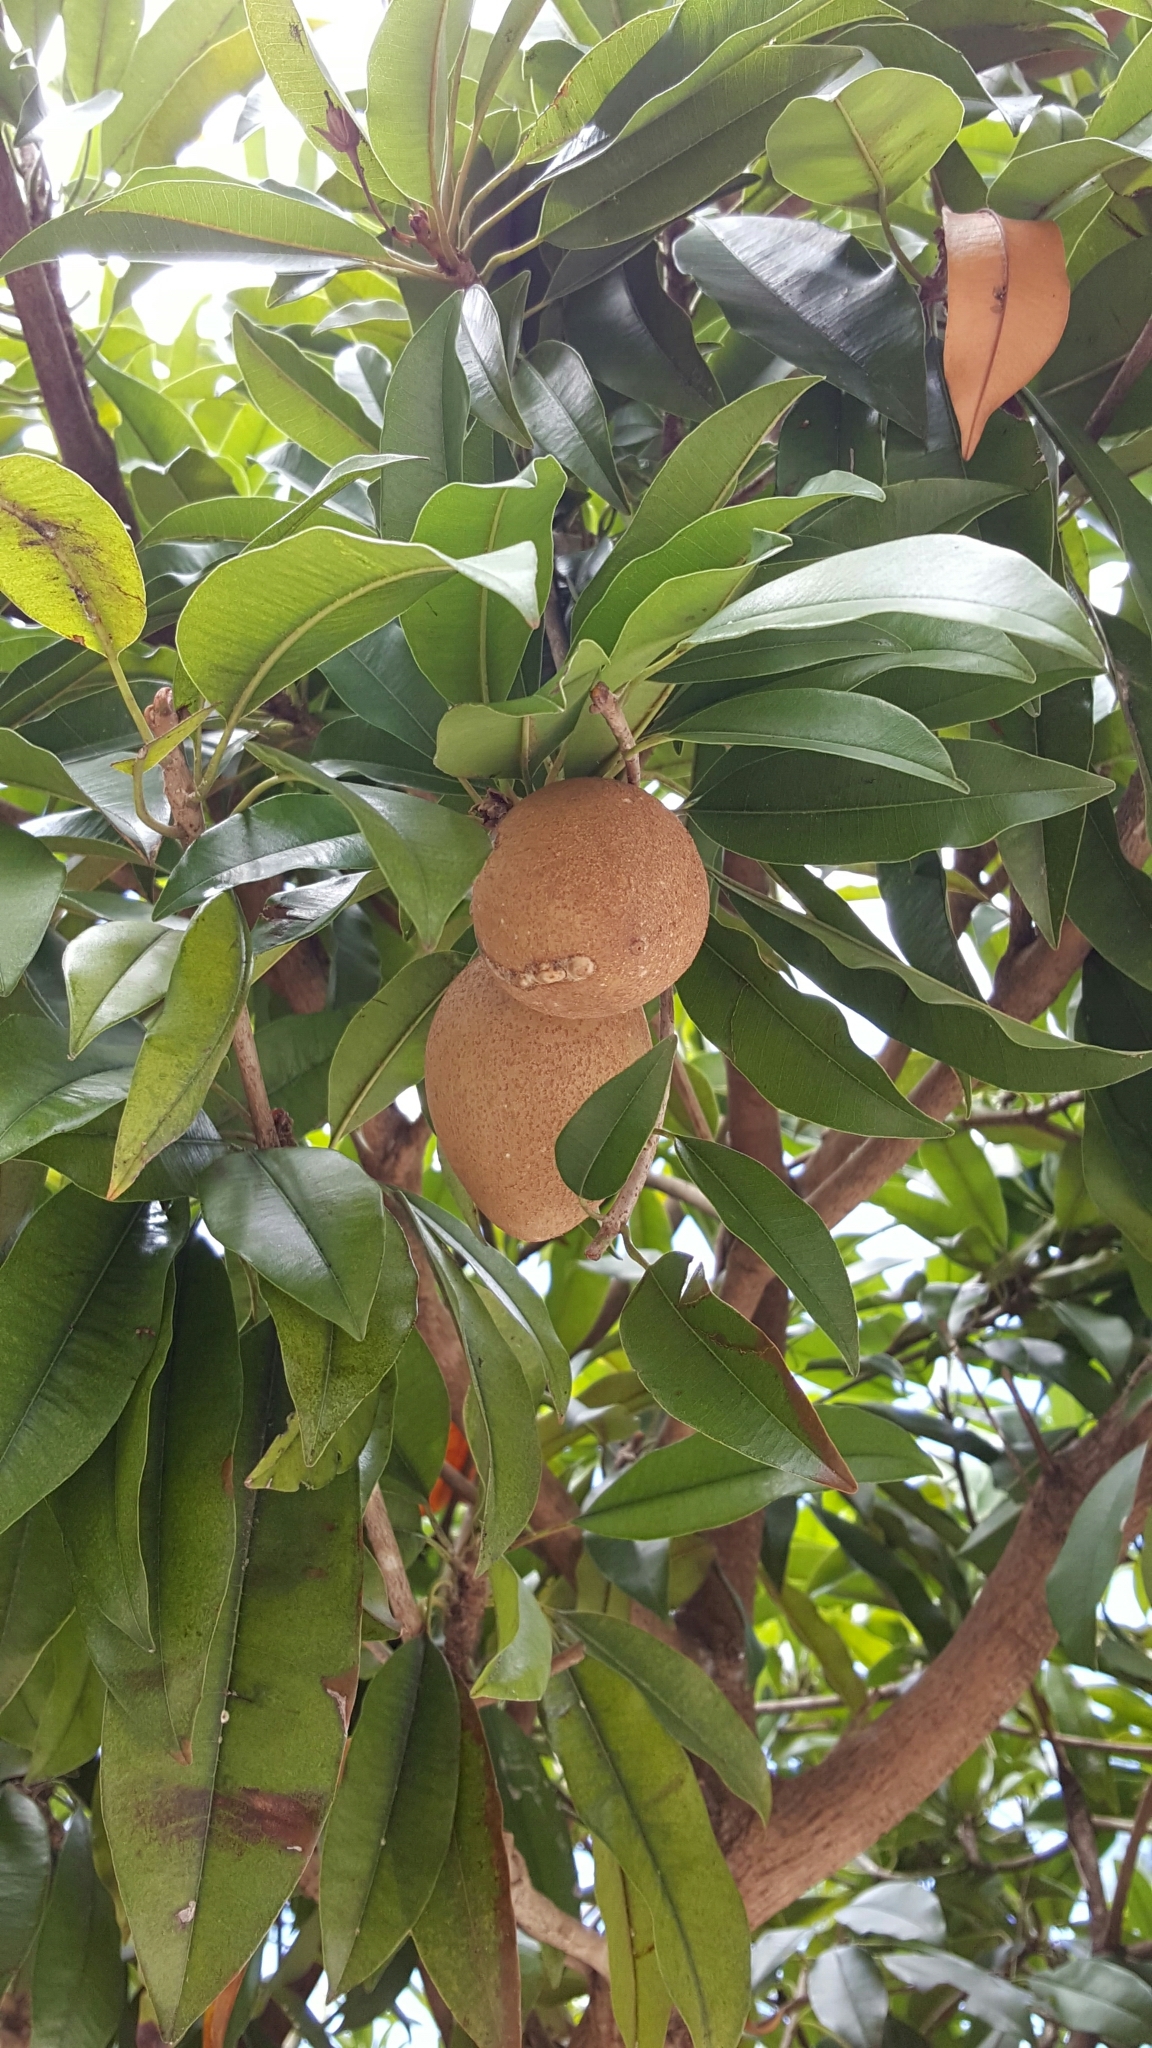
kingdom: Plantae
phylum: Tracheophyta
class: Magnoliopsida
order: Ericales
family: Sapotaceae
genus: Manilkara
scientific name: Manilkara zapota
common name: Sapodilla
